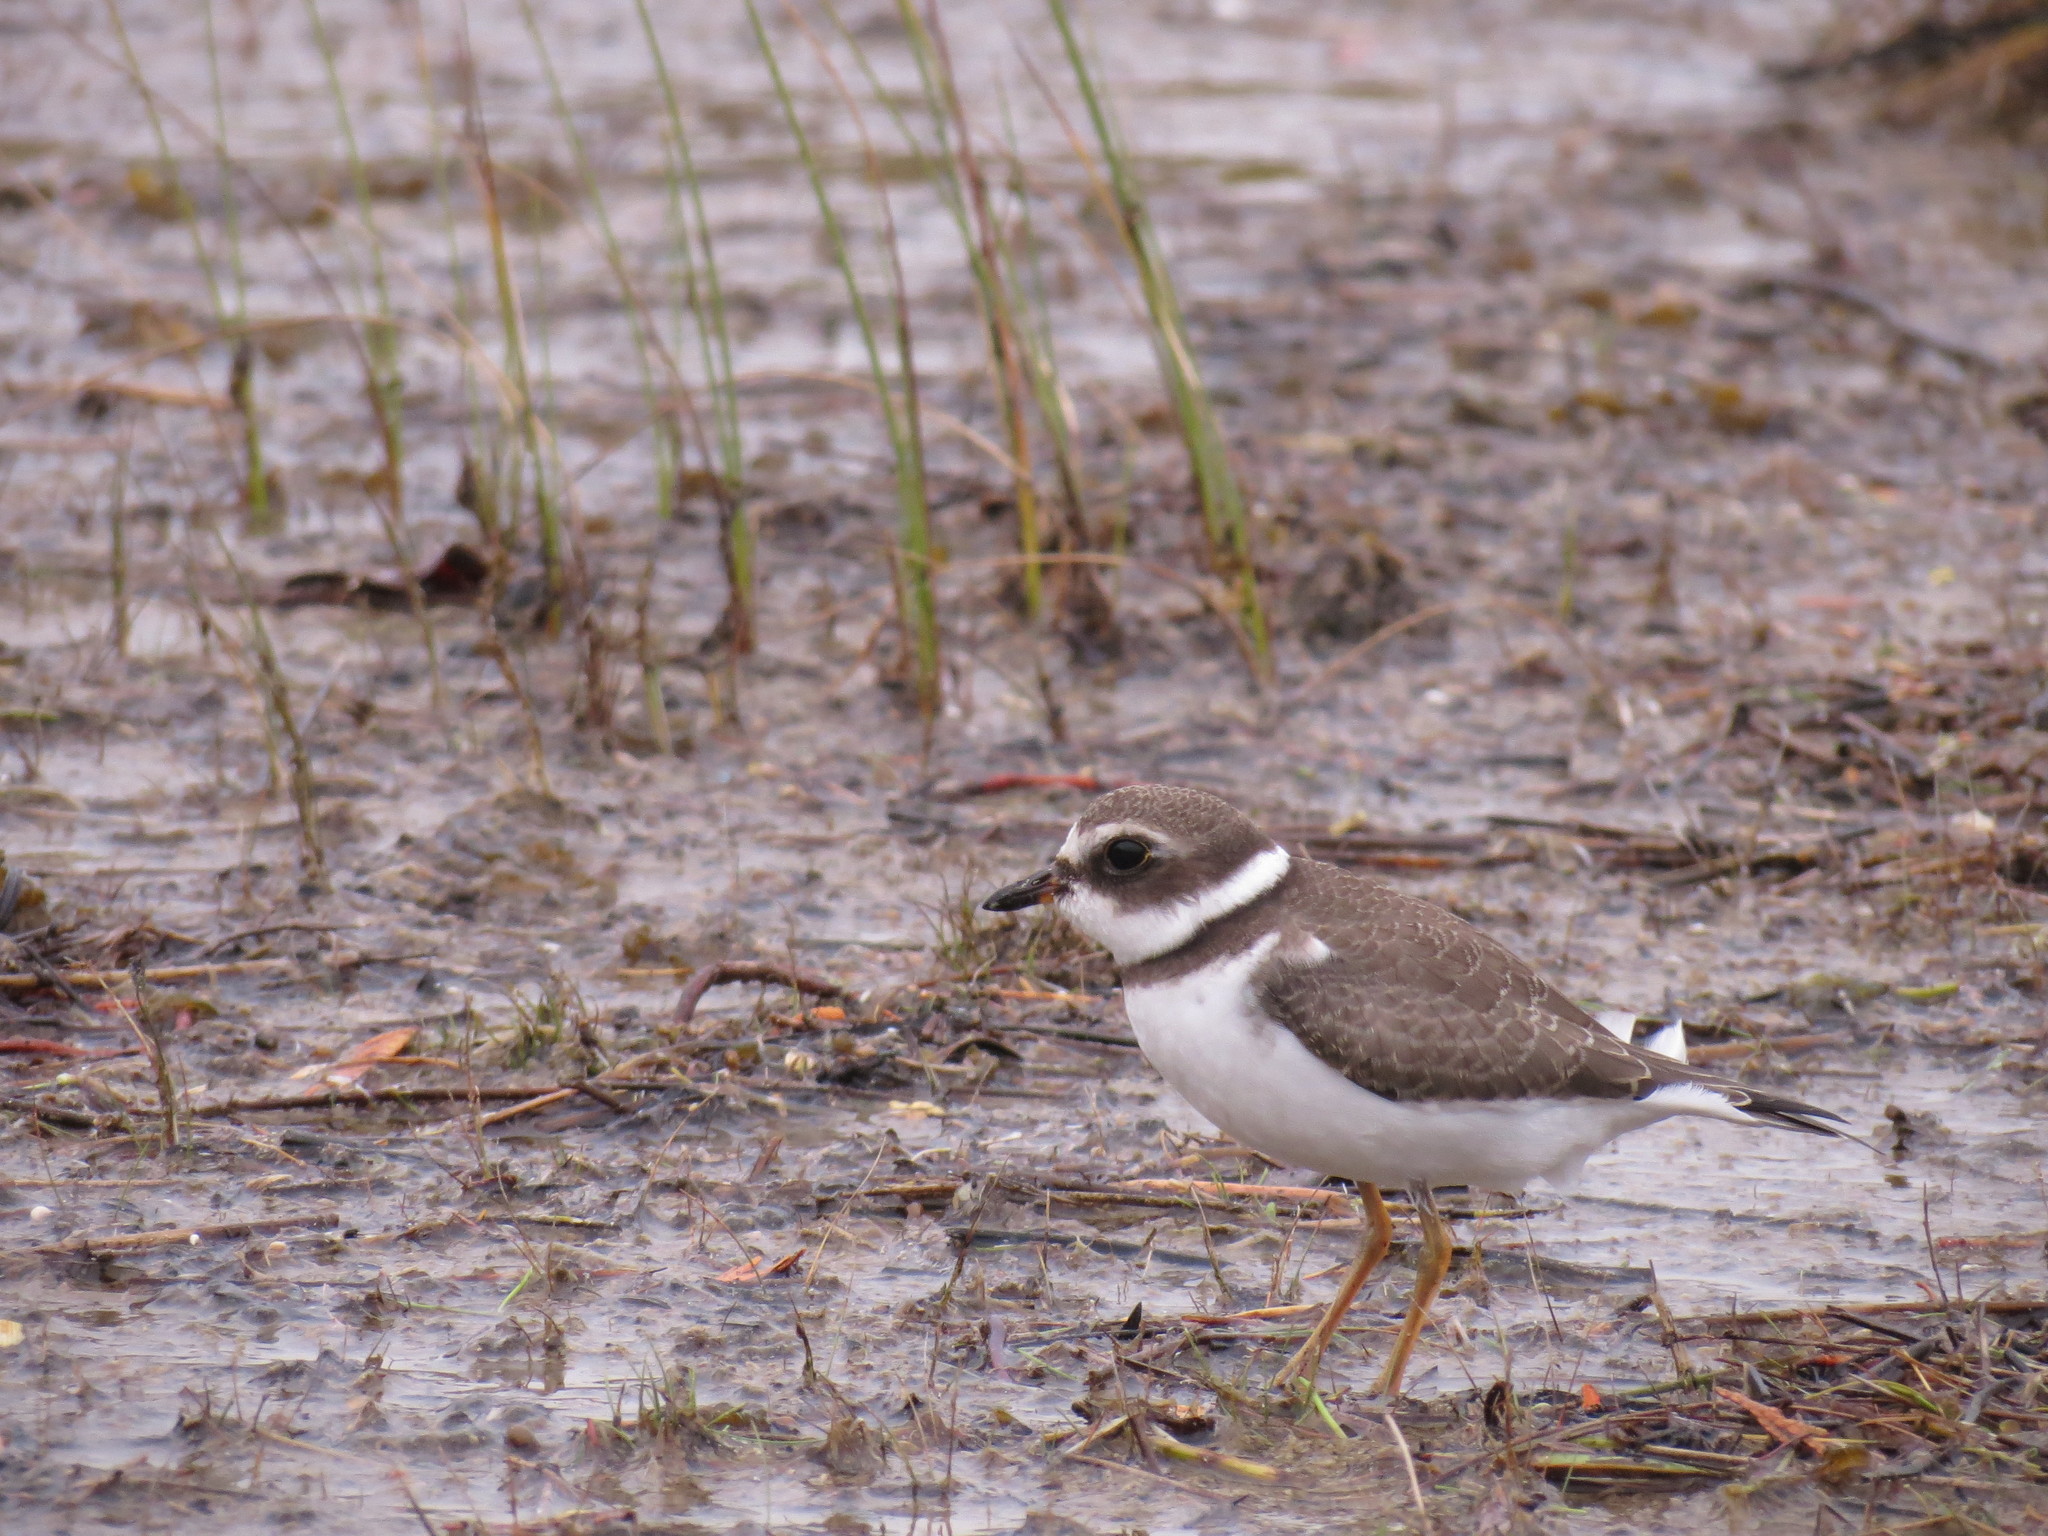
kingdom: Animalia
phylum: Chordata
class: Aves
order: Charadriiformes
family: Charadriidae
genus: Charadrius
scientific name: Charadrius semipalmatus
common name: Semipalmated plover
